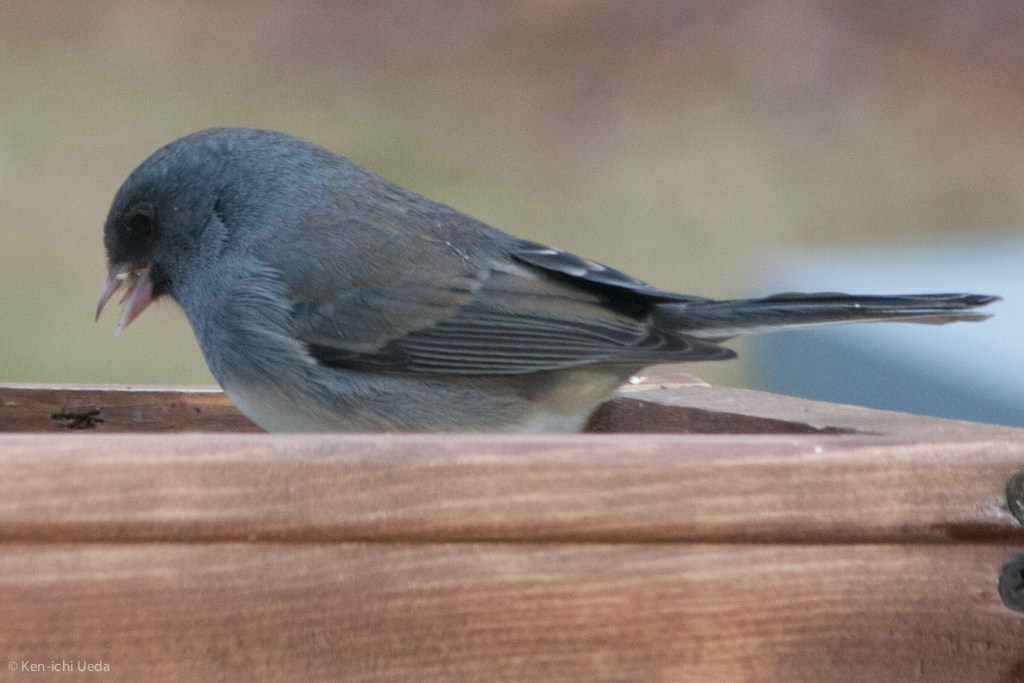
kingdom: Animalia
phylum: Chordata
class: Aves
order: Passeriformes
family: Passerellidae
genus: Junco
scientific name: Junco hyemalis
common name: Dark-eyed junco
